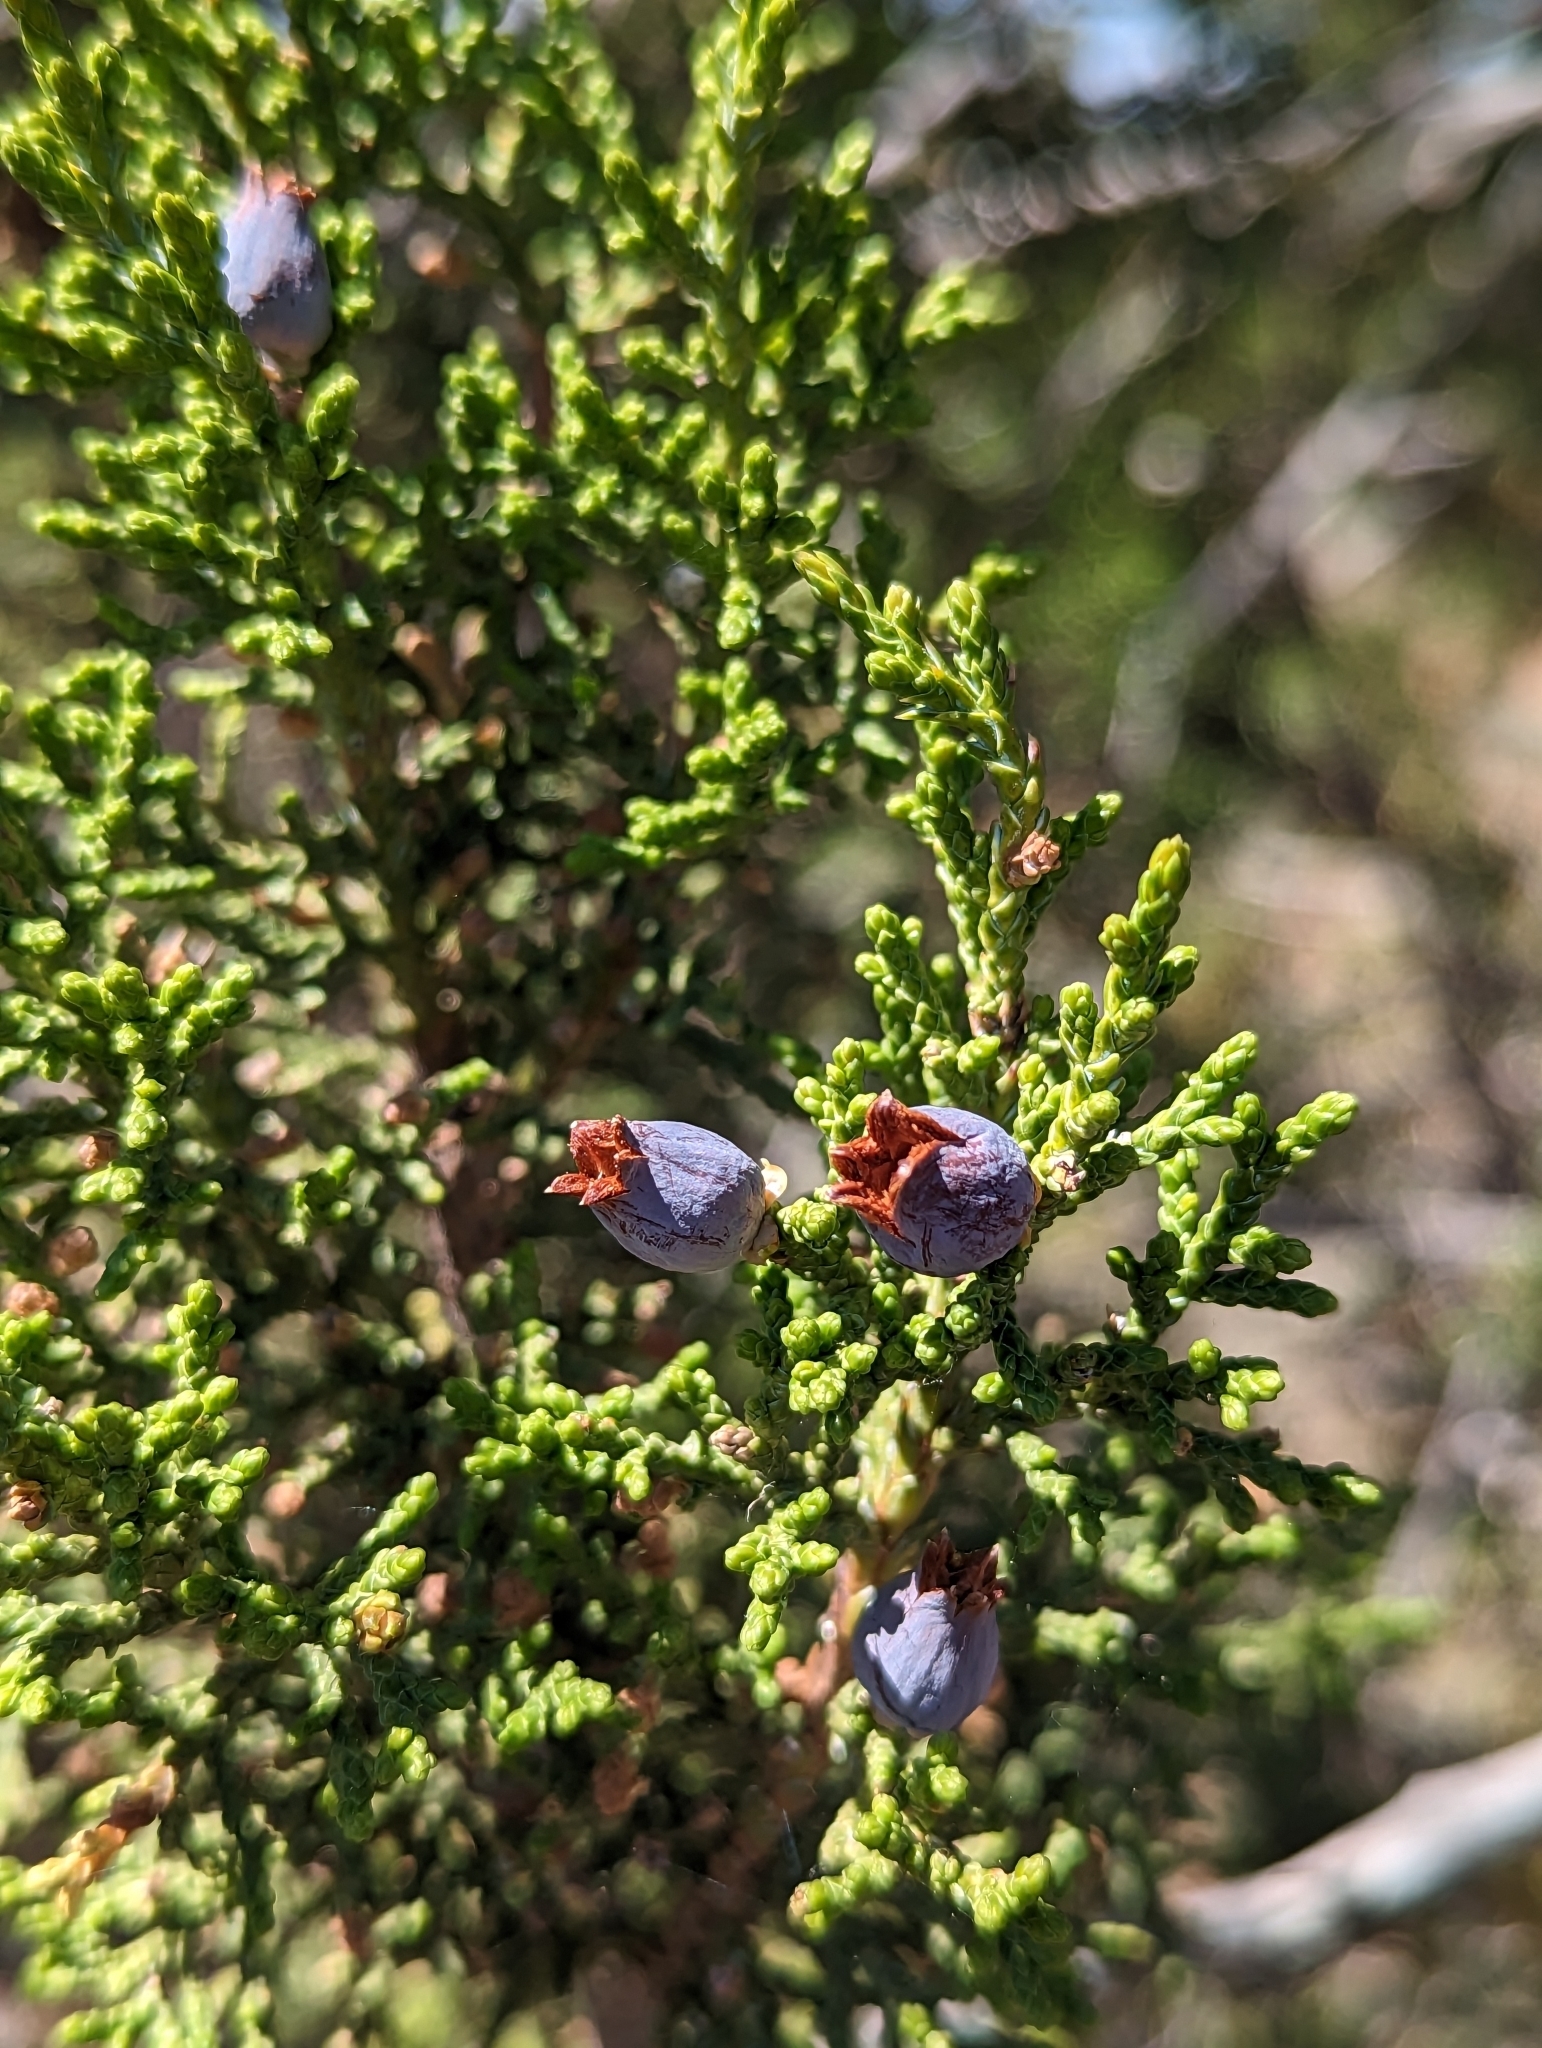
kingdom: Plantae
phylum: Tracheophyta
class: Pinopsida
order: Pinales
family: Cupressaceae
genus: Juniperus
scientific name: Juniperus osteosperma
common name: Utah juniper
